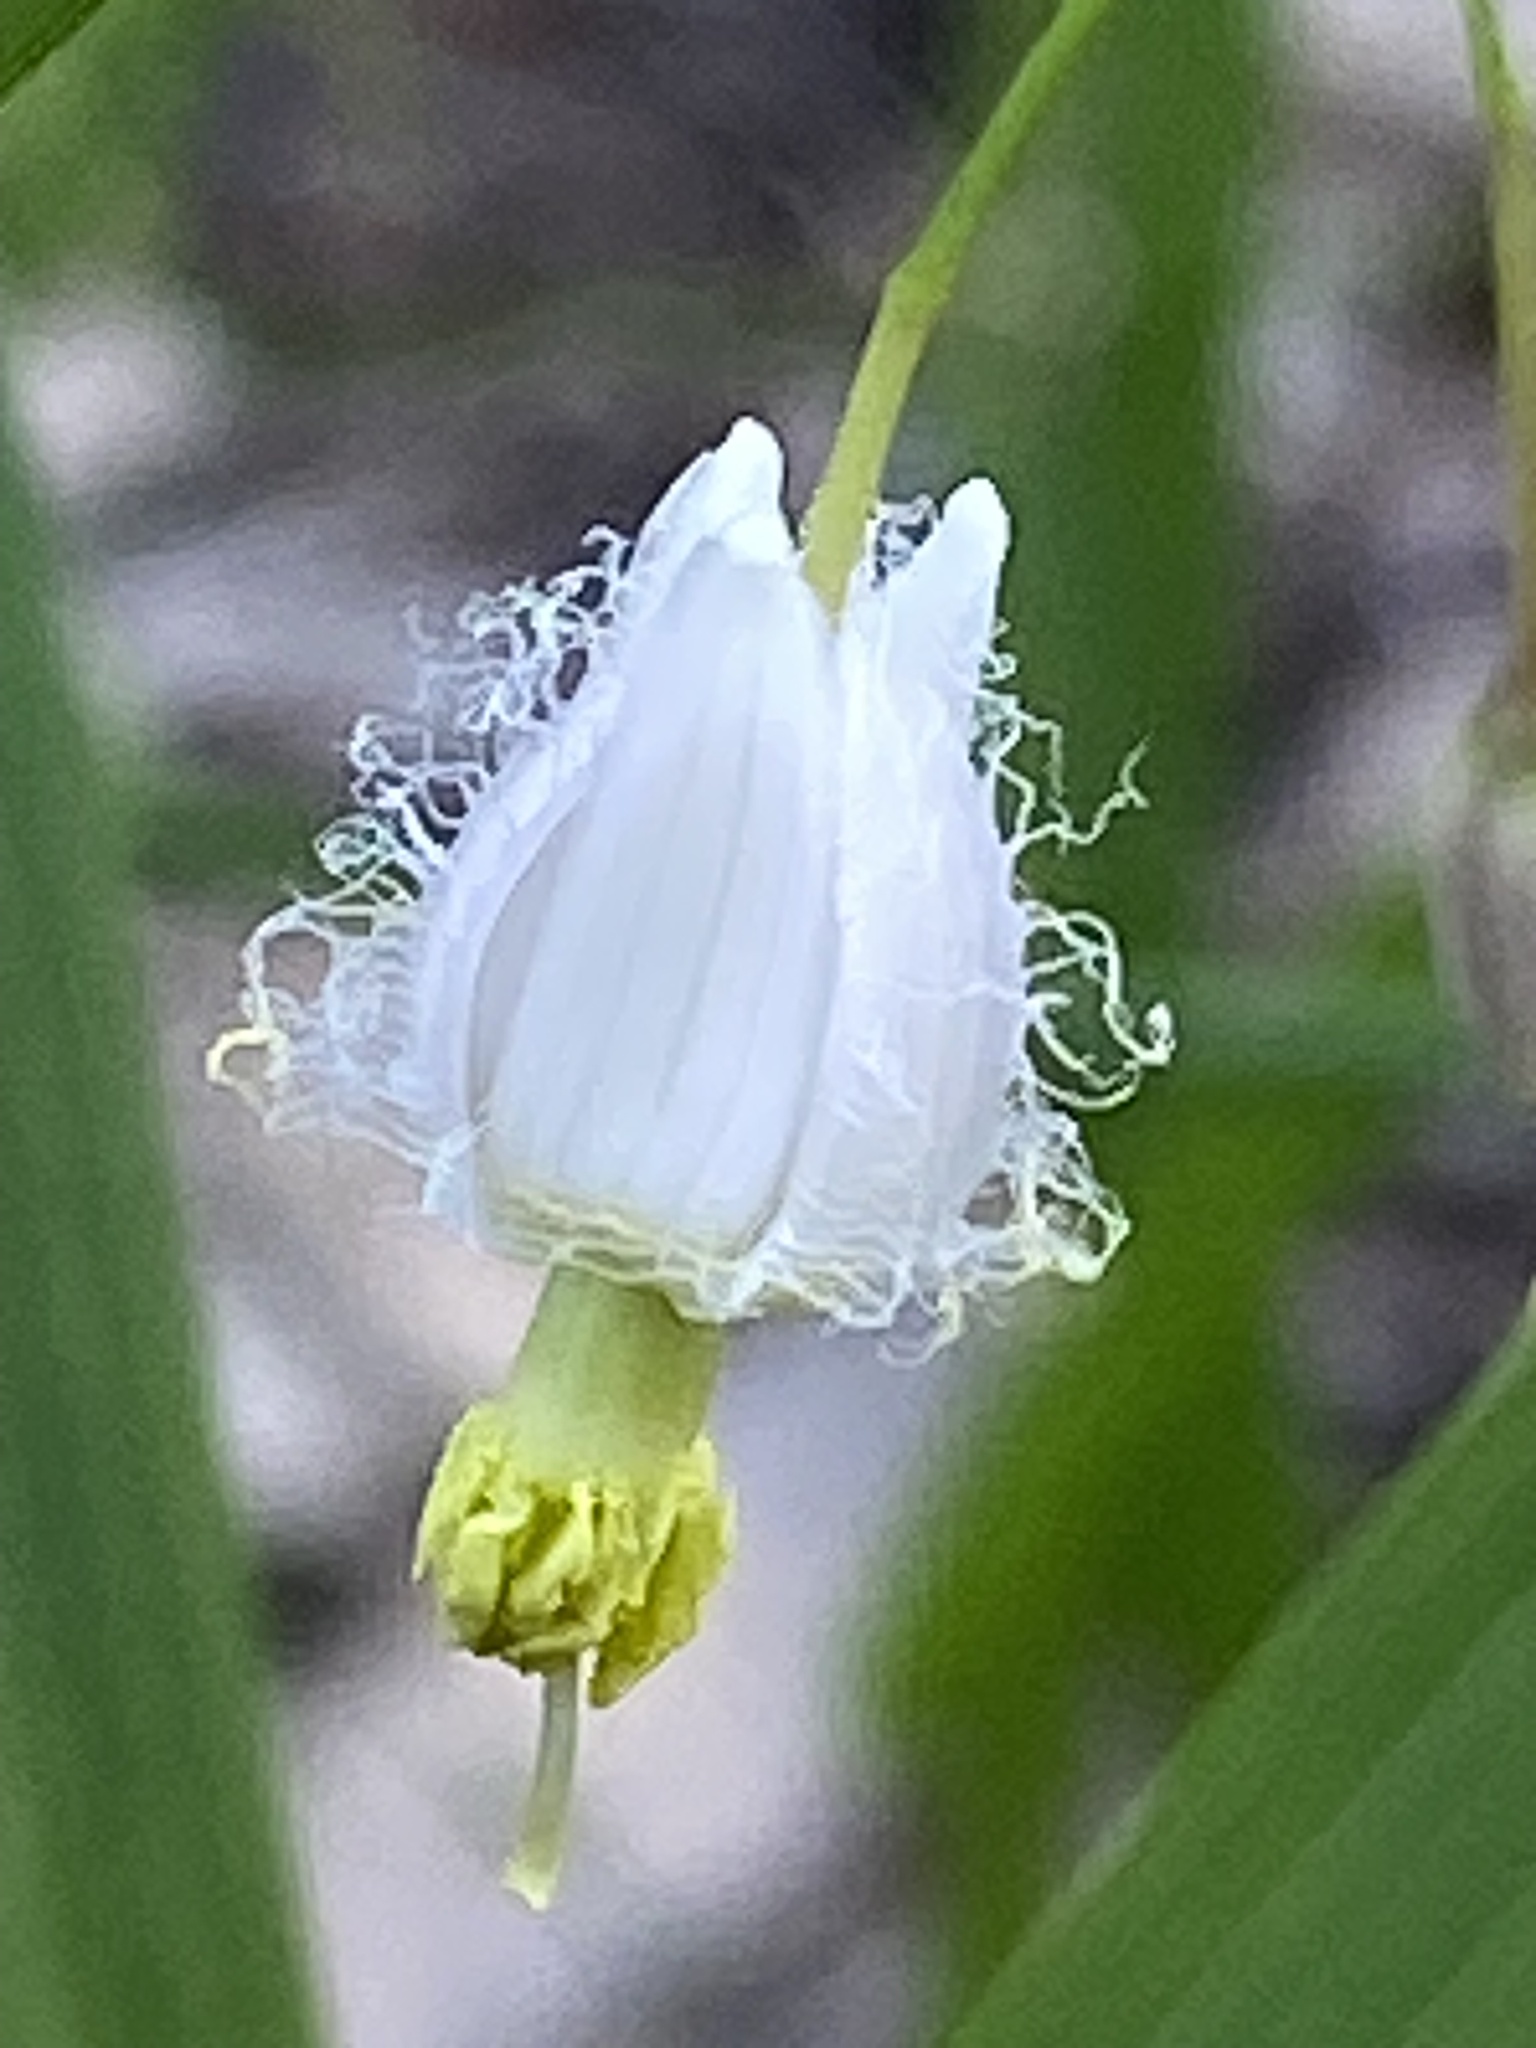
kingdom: Plantae
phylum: Tracheophyta
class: Liliopsida
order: Asparagales
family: Asparagaceae
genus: Eustrephus
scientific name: Eustrephus latifolius
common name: Orangevine
